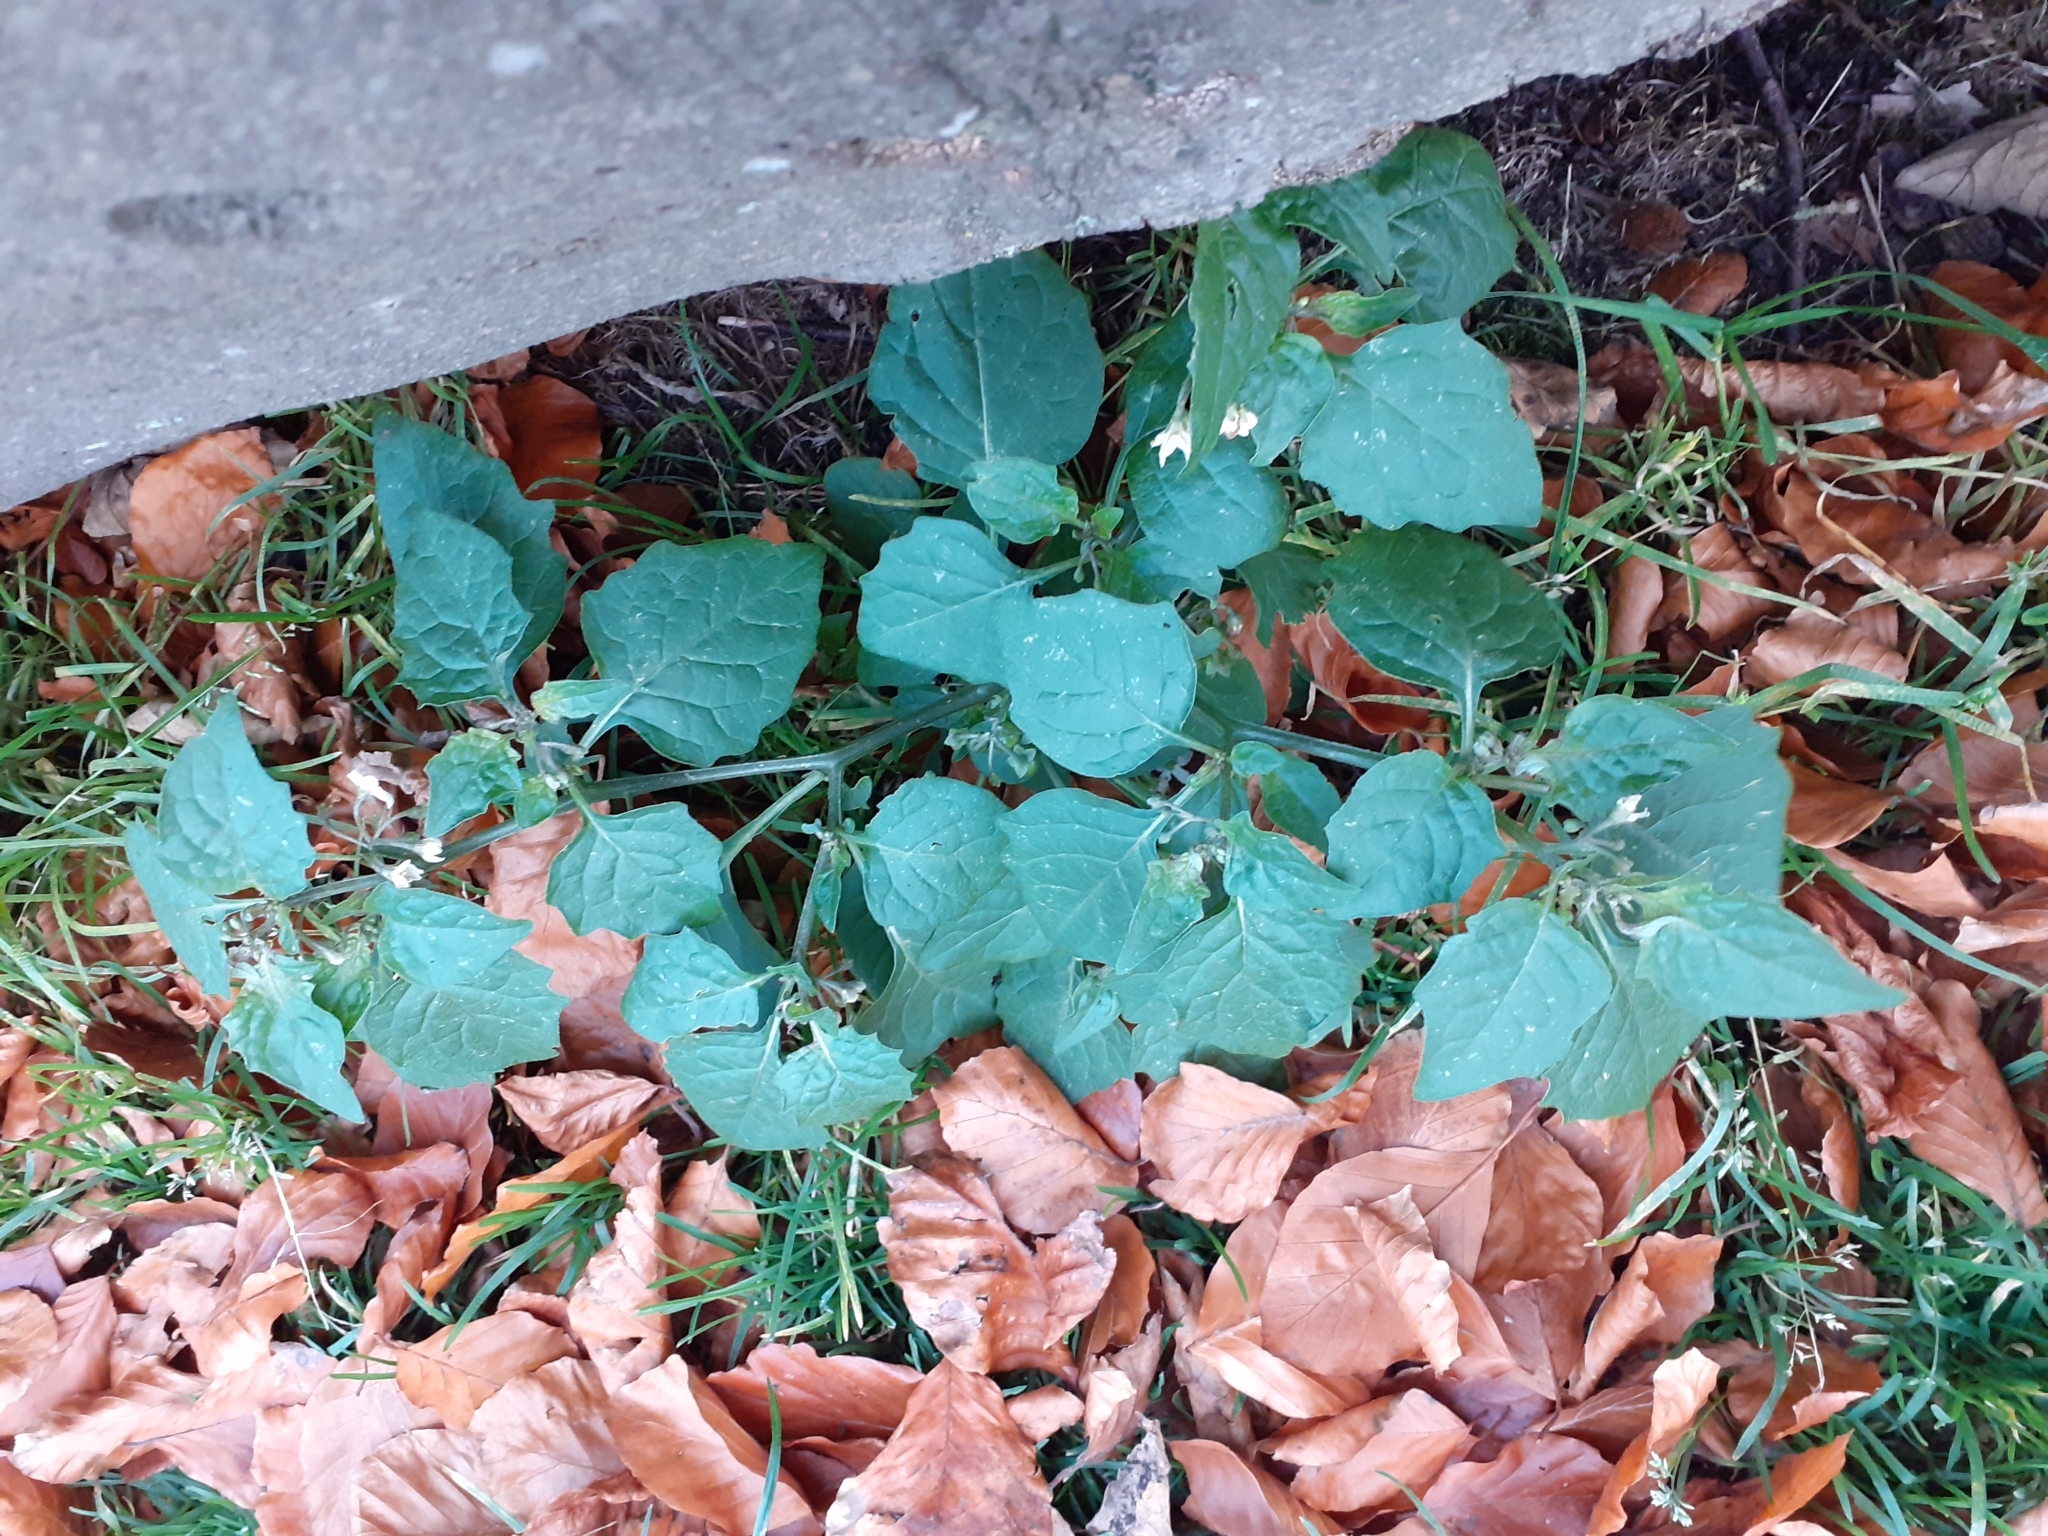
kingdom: Plantae
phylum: Tracheophyta
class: Magnoliopsida
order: Solanales
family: Solanaceae
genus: Solanum
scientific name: Solanum nigrum
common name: Black nightshade
